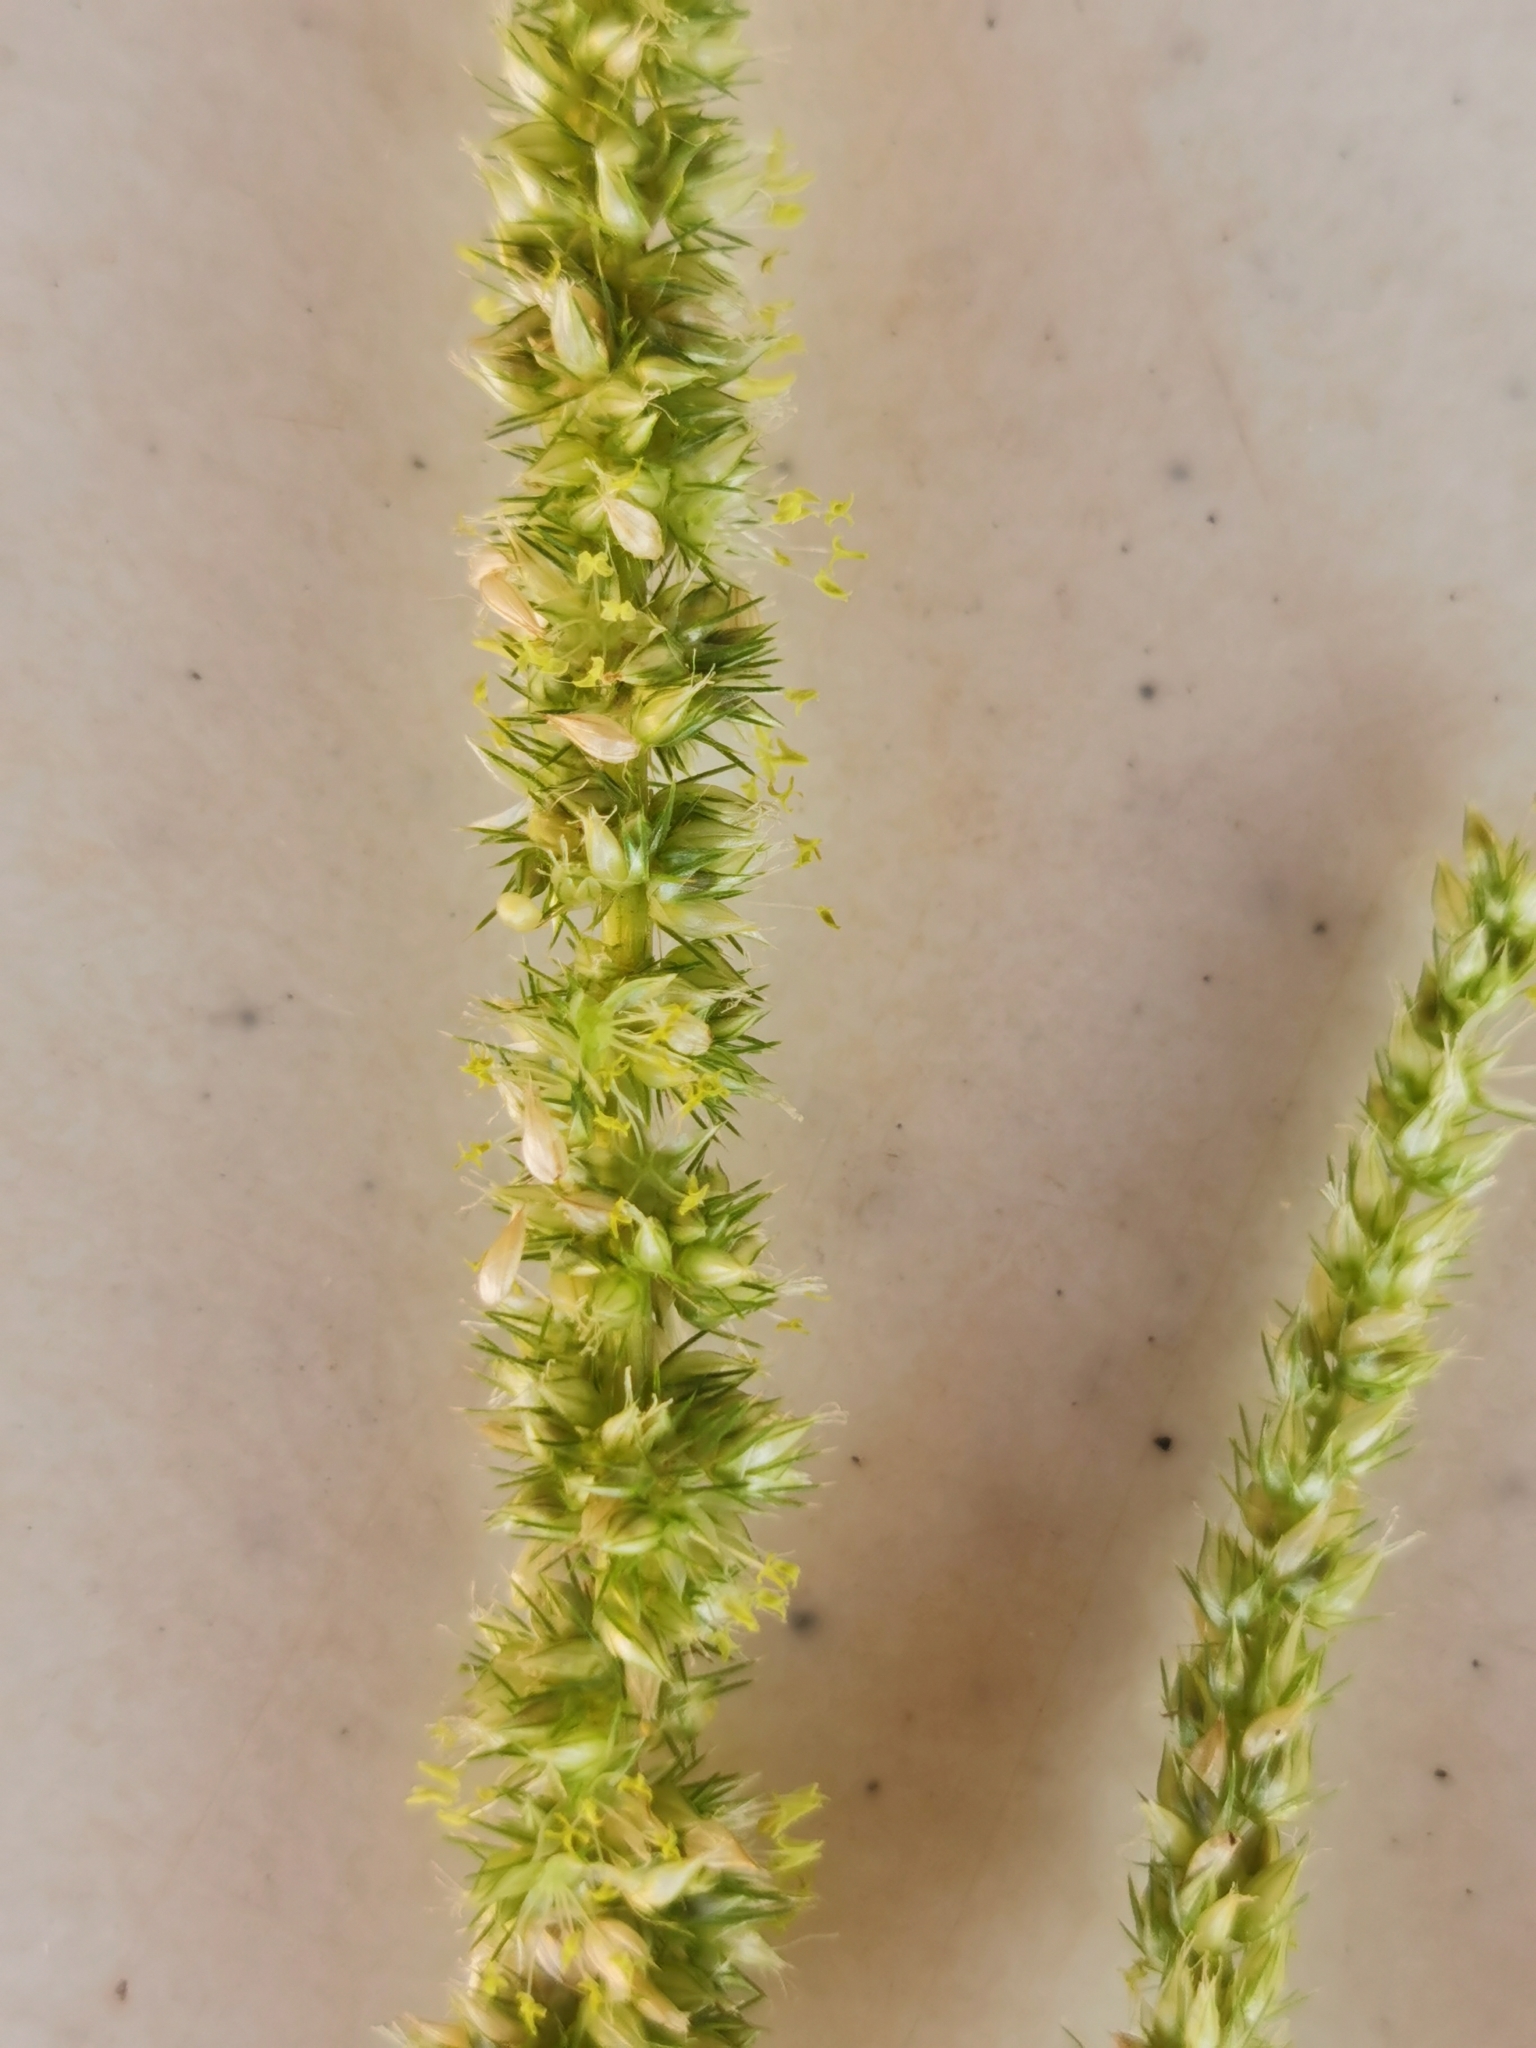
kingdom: Plantae
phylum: Tracheophyta
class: Magnoliopsida
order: Caryophyllales
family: Amaranthaceae
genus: Amaranthus
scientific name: Amaranthus palmeri
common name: Dioecious amaranth
